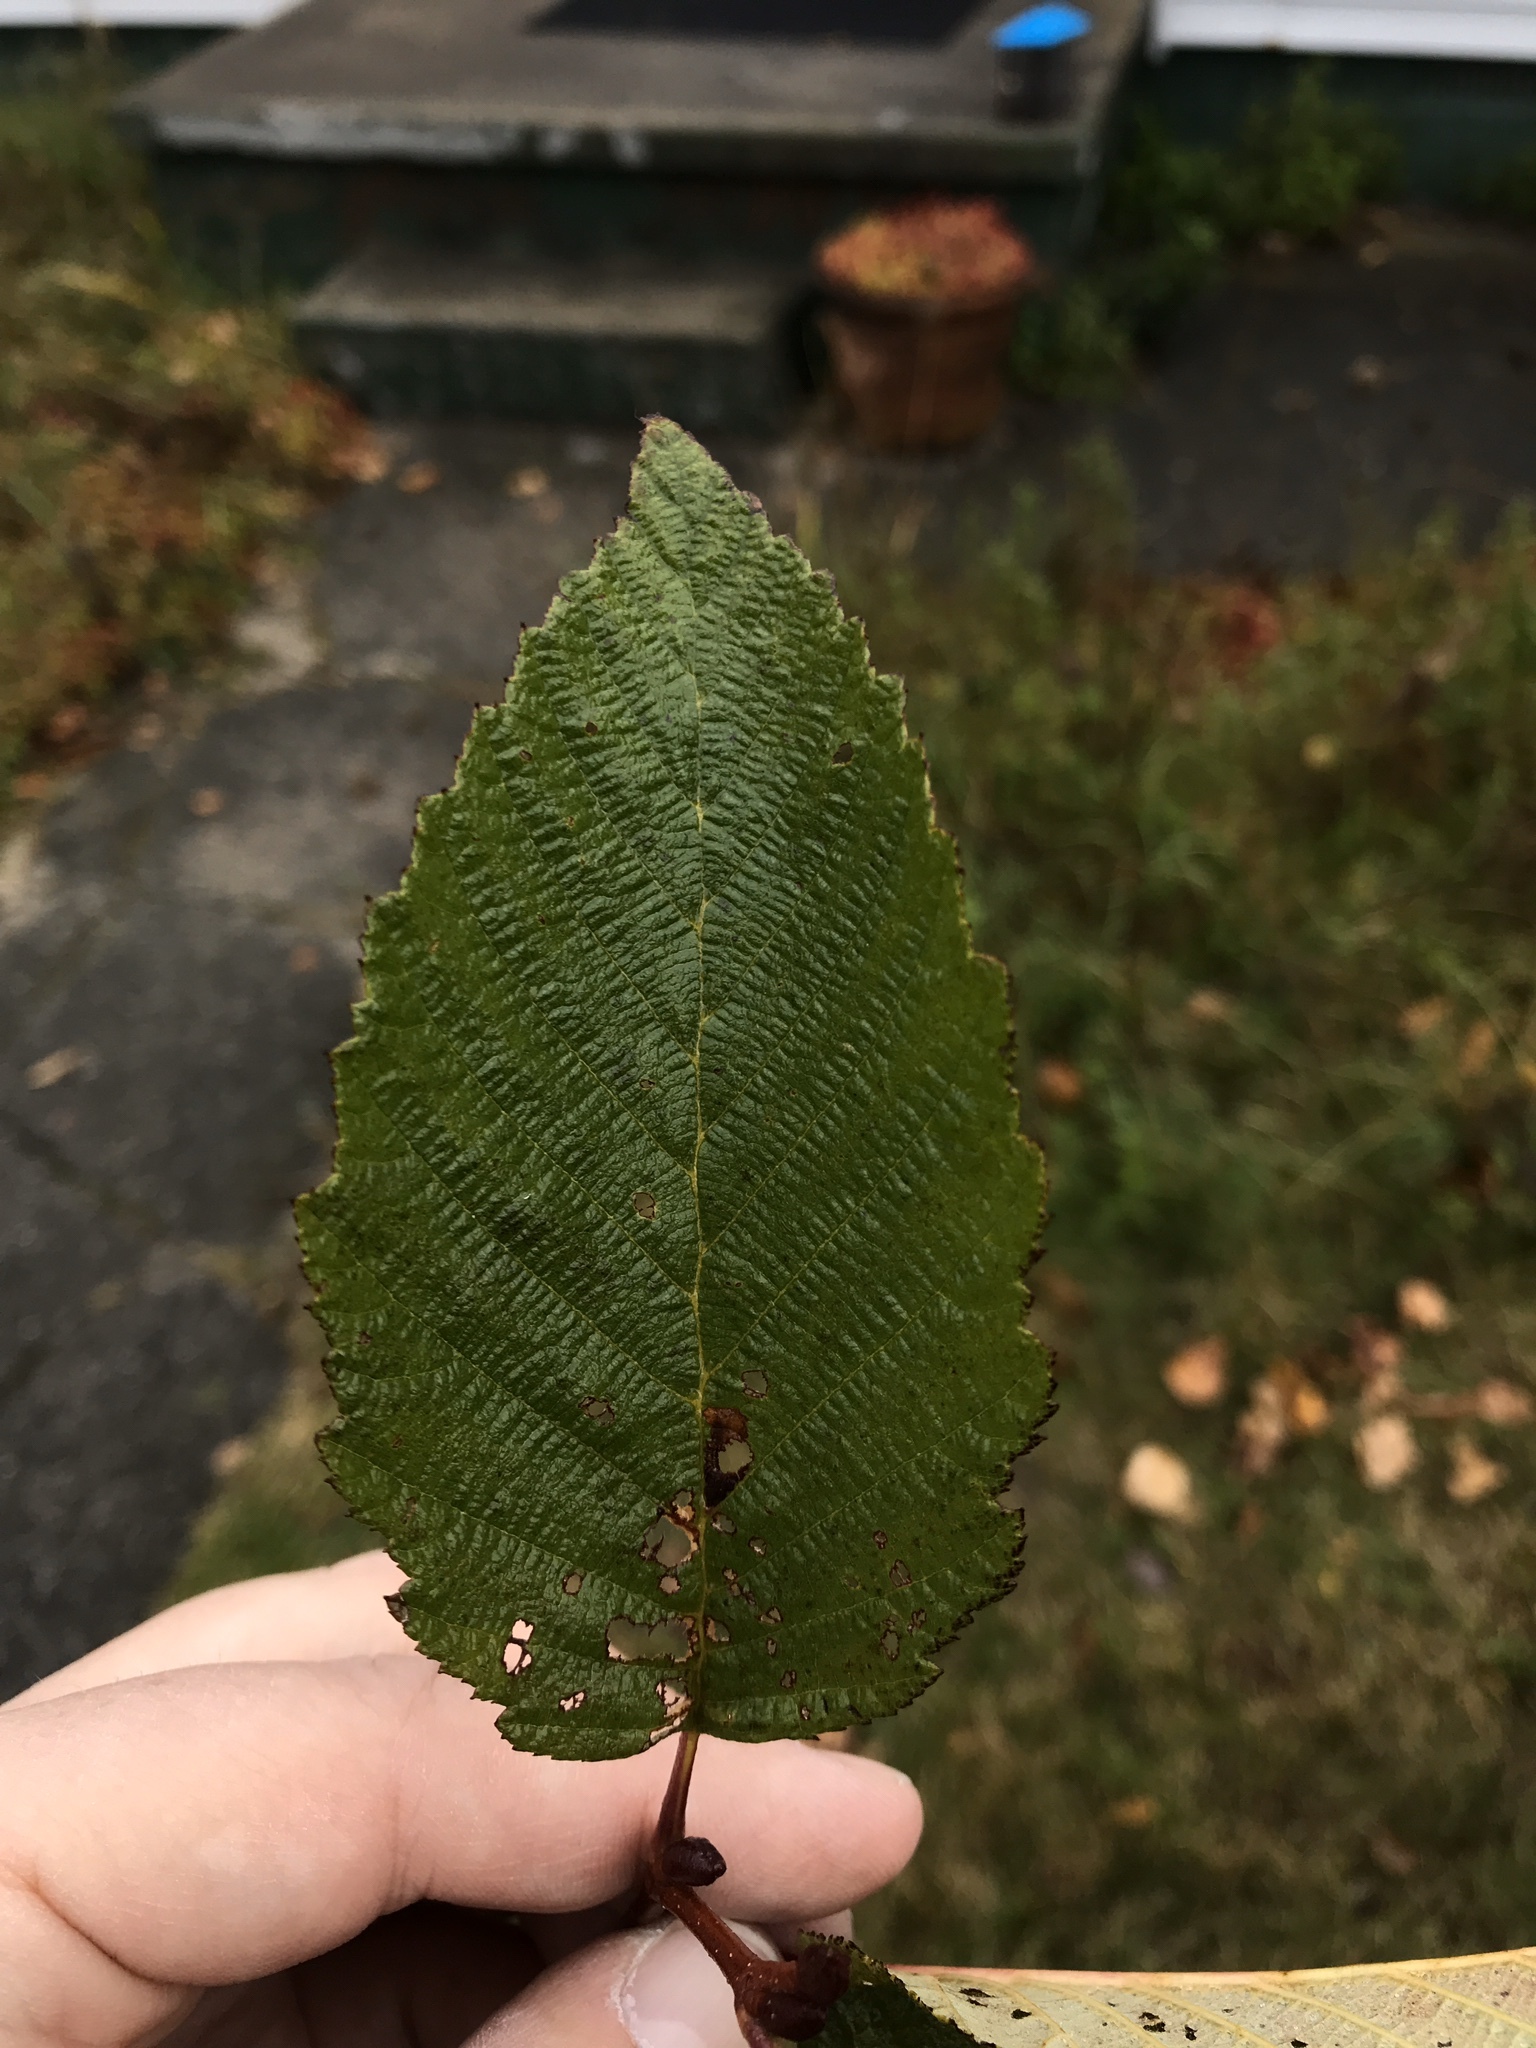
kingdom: Plantae
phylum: Tracheophyta
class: Magnoliopsida
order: Fagales
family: Betulaceae
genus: Alnus
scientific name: Alnus incana
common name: Grey alder
